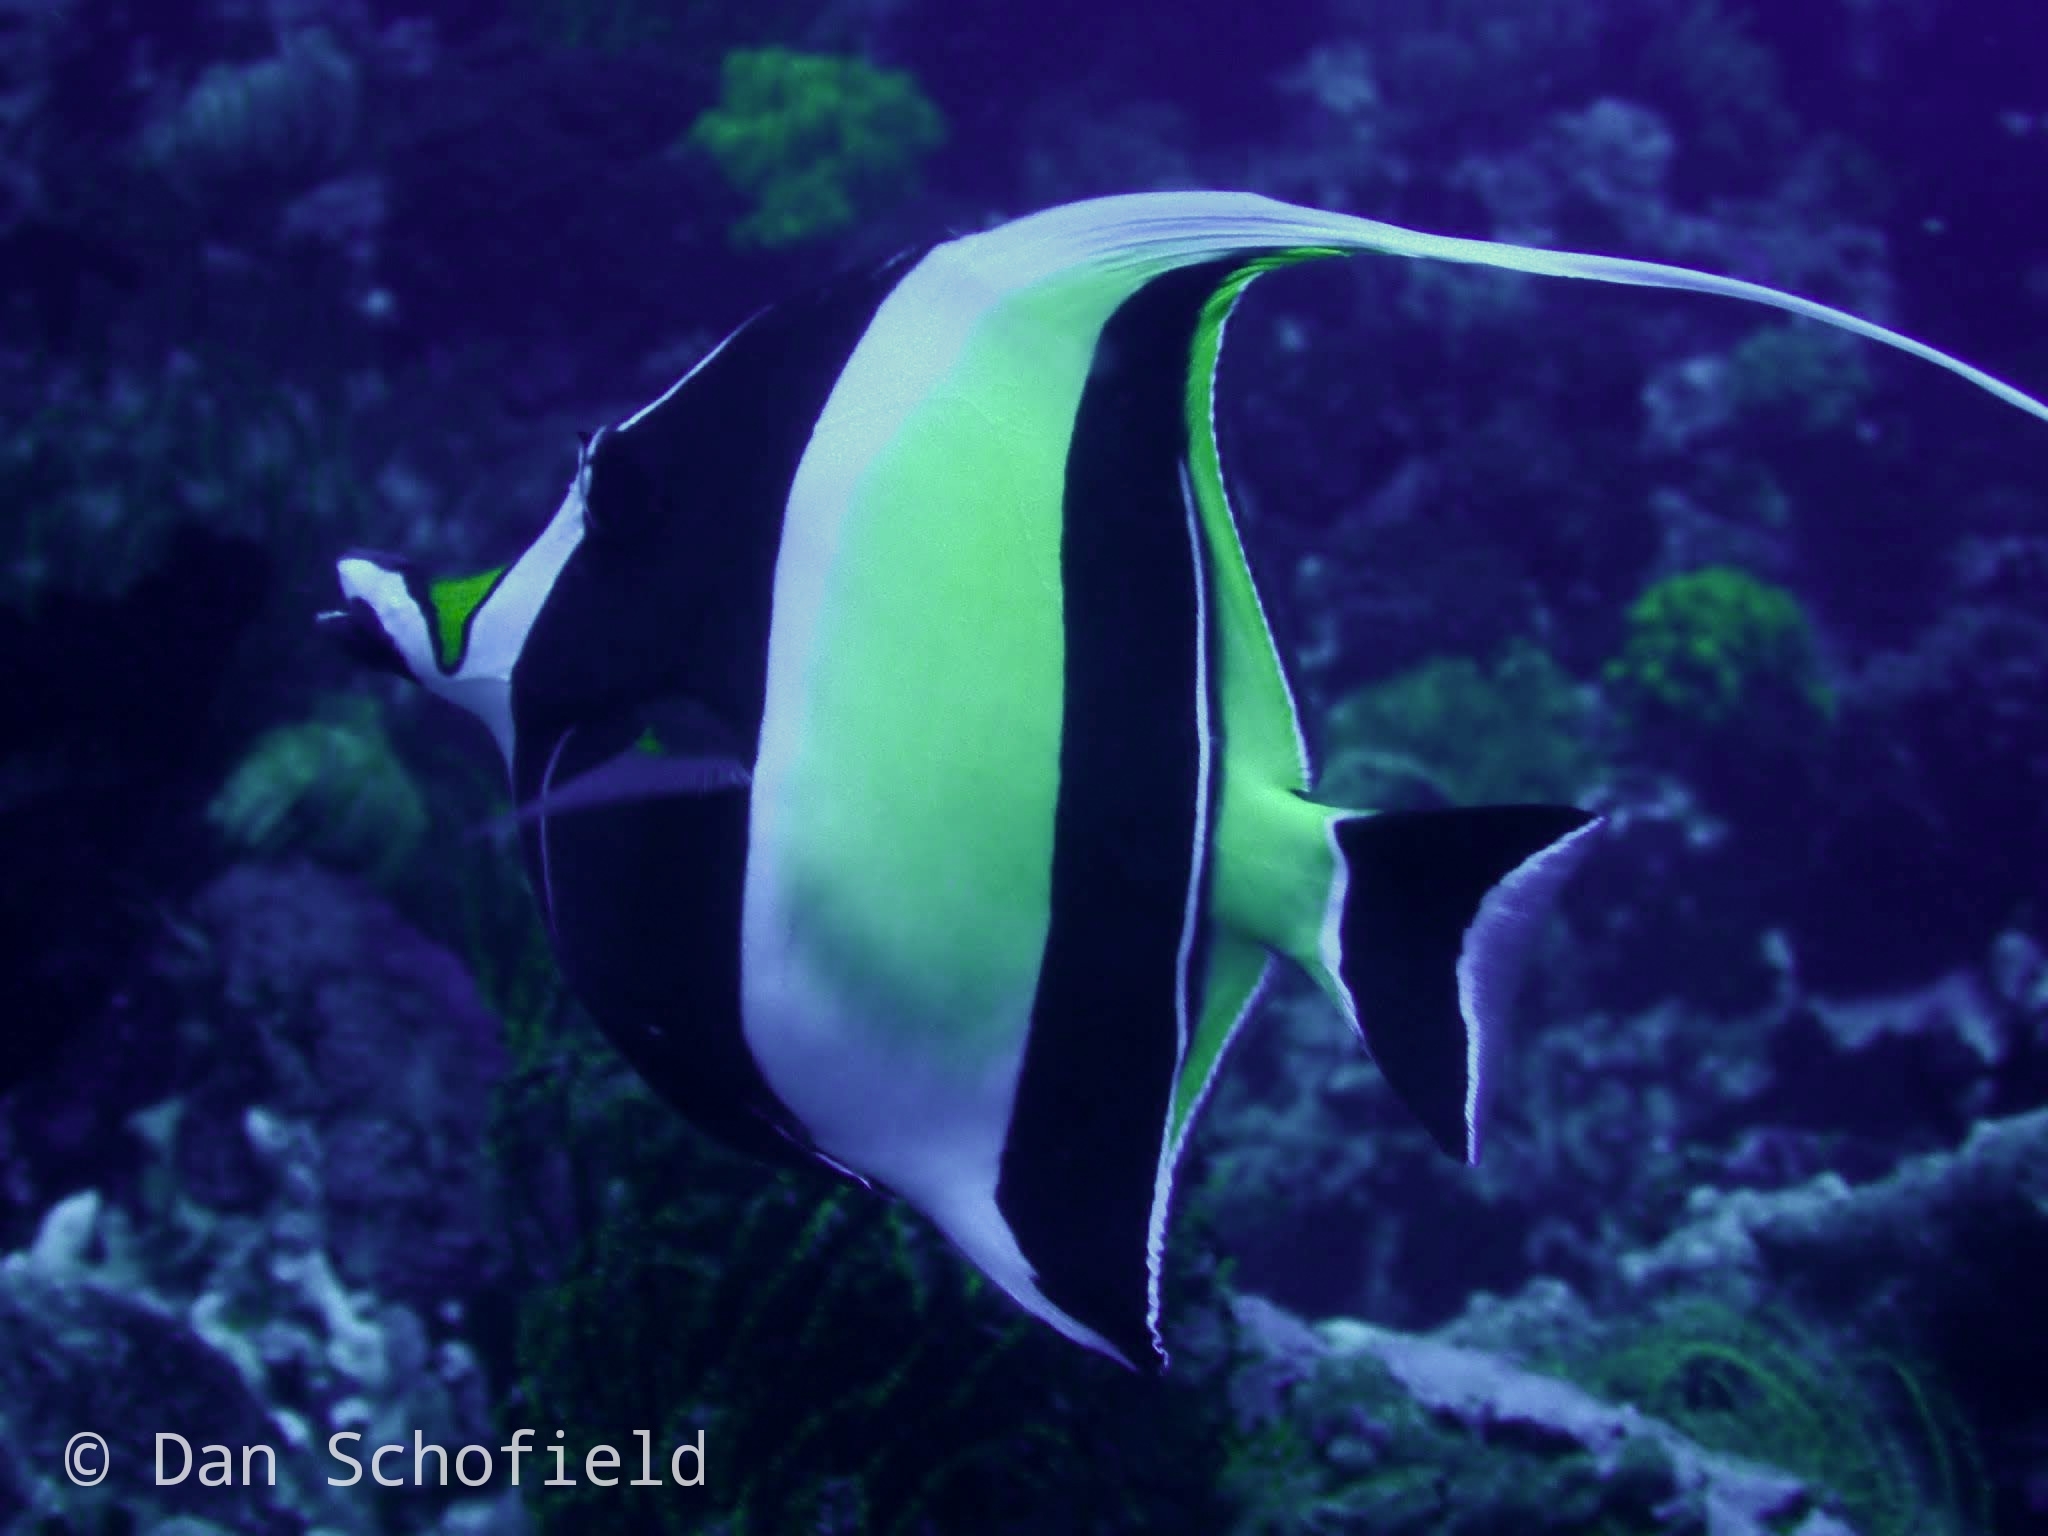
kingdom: Animalia
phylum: Chordata
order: Perciformes
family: Zanclidae
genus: Zanclus
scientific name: Zanclus cornutus
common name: Moorish idol
